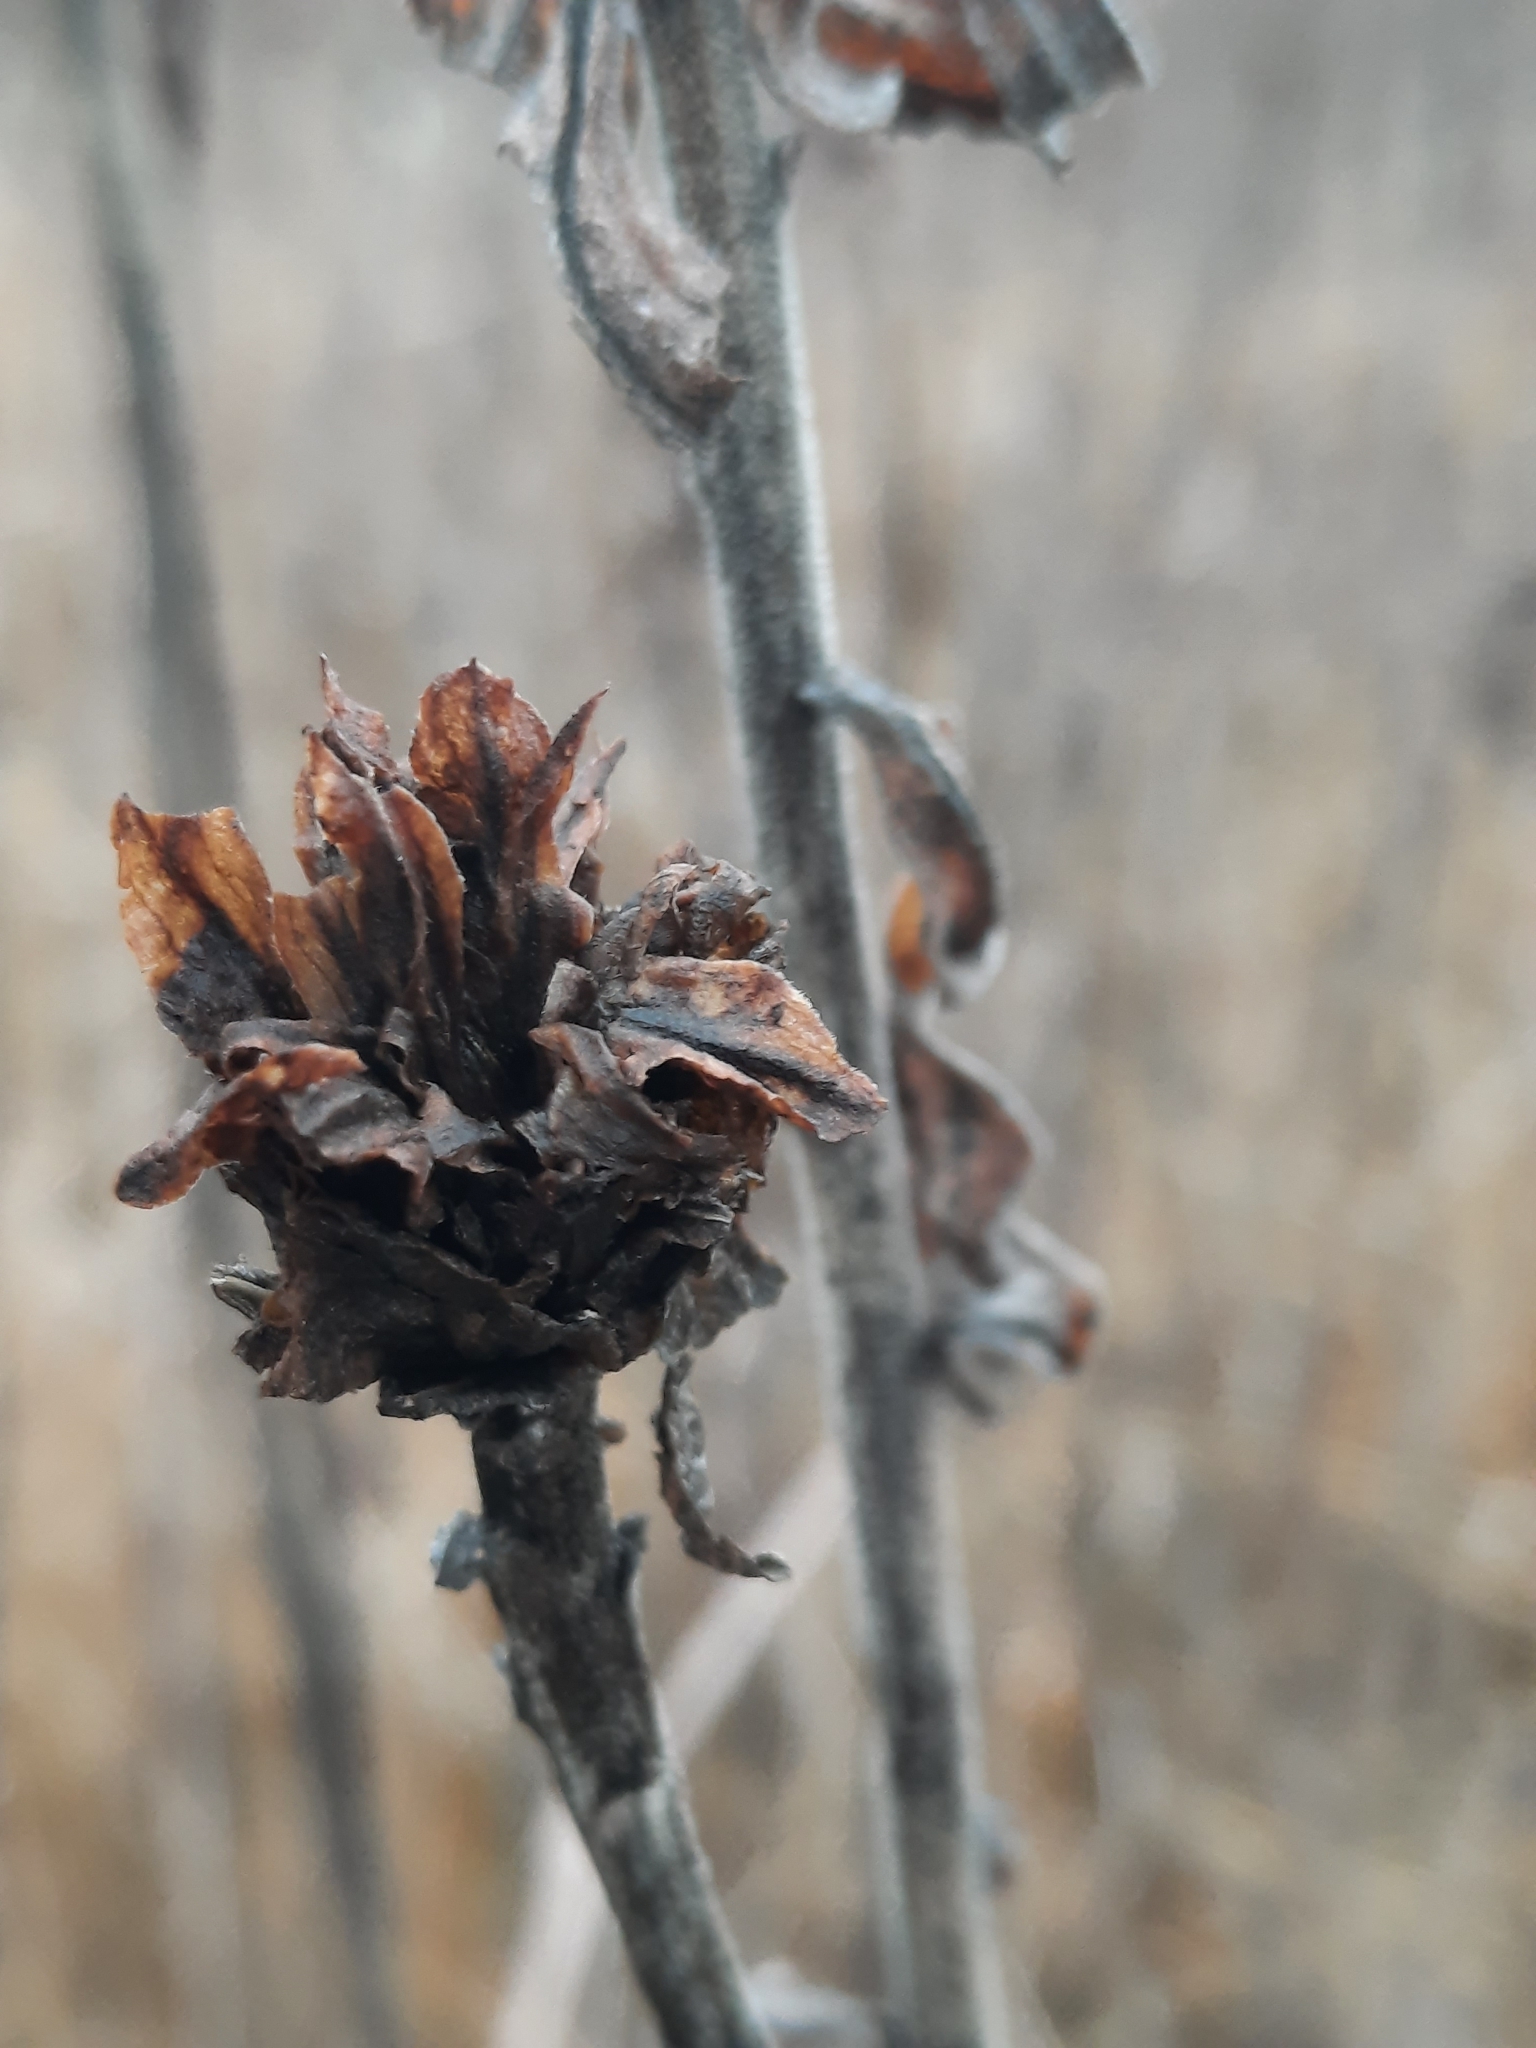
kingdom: Animalia
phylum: Arthropoda
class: Insecta
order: Diptera
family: Cecidomyiidae
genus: Rhopalomyia
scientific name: Rhopalomyia solidaginis
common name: Goldenrod bunch gall midge
